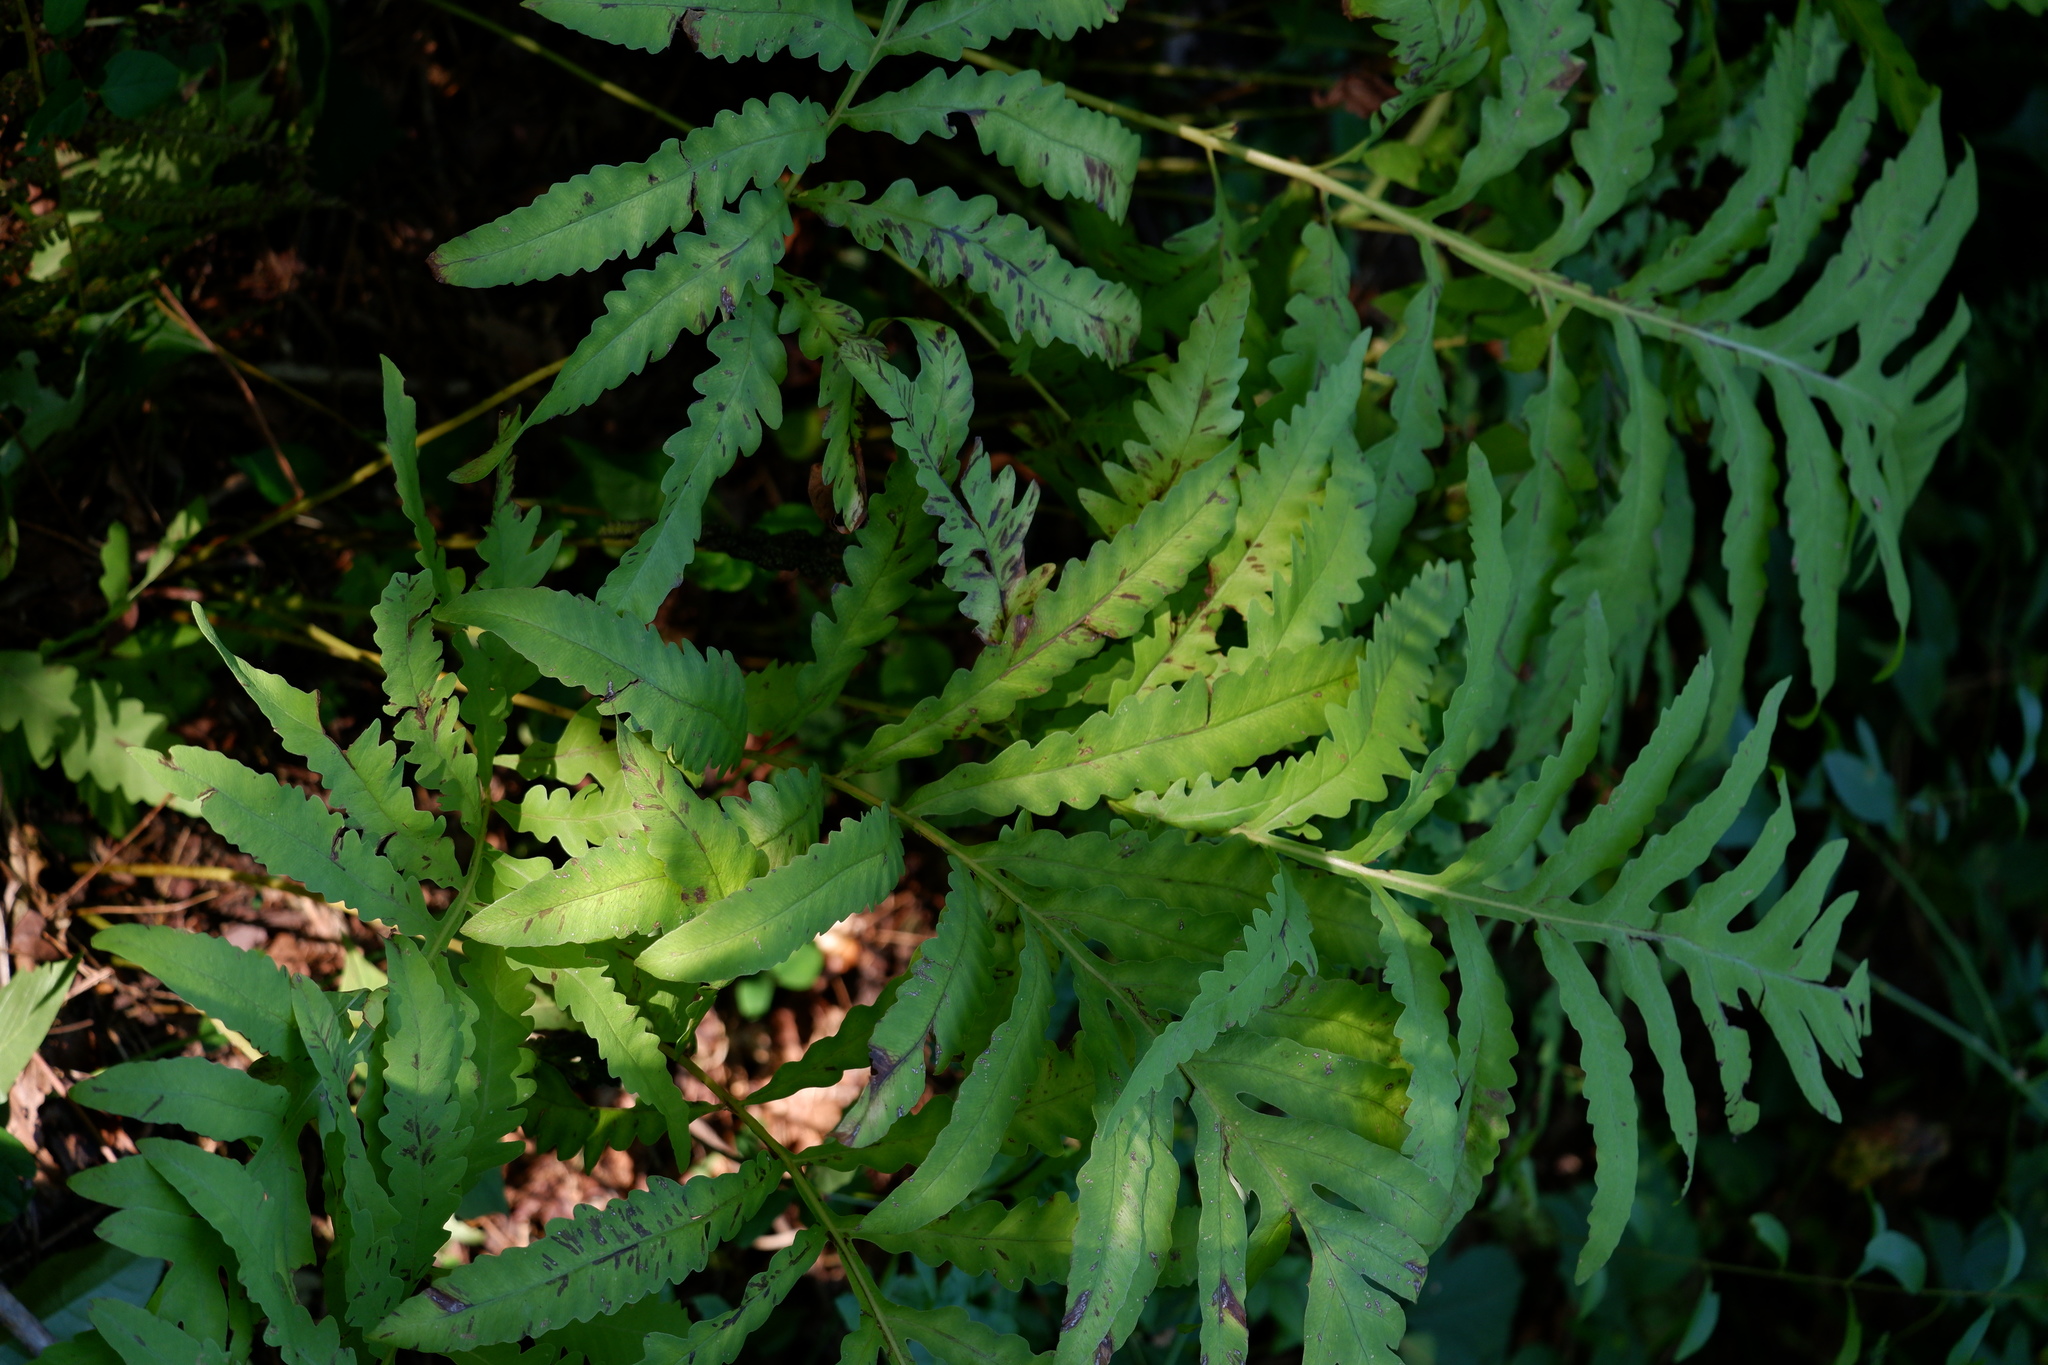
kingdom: Plantae
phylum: Tracheophyta
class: Polypodiopsida
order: Polypodiales
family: Onocleaceae
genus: Onoclea
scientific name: Onoclea sensibilis
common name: Sensitive fern
